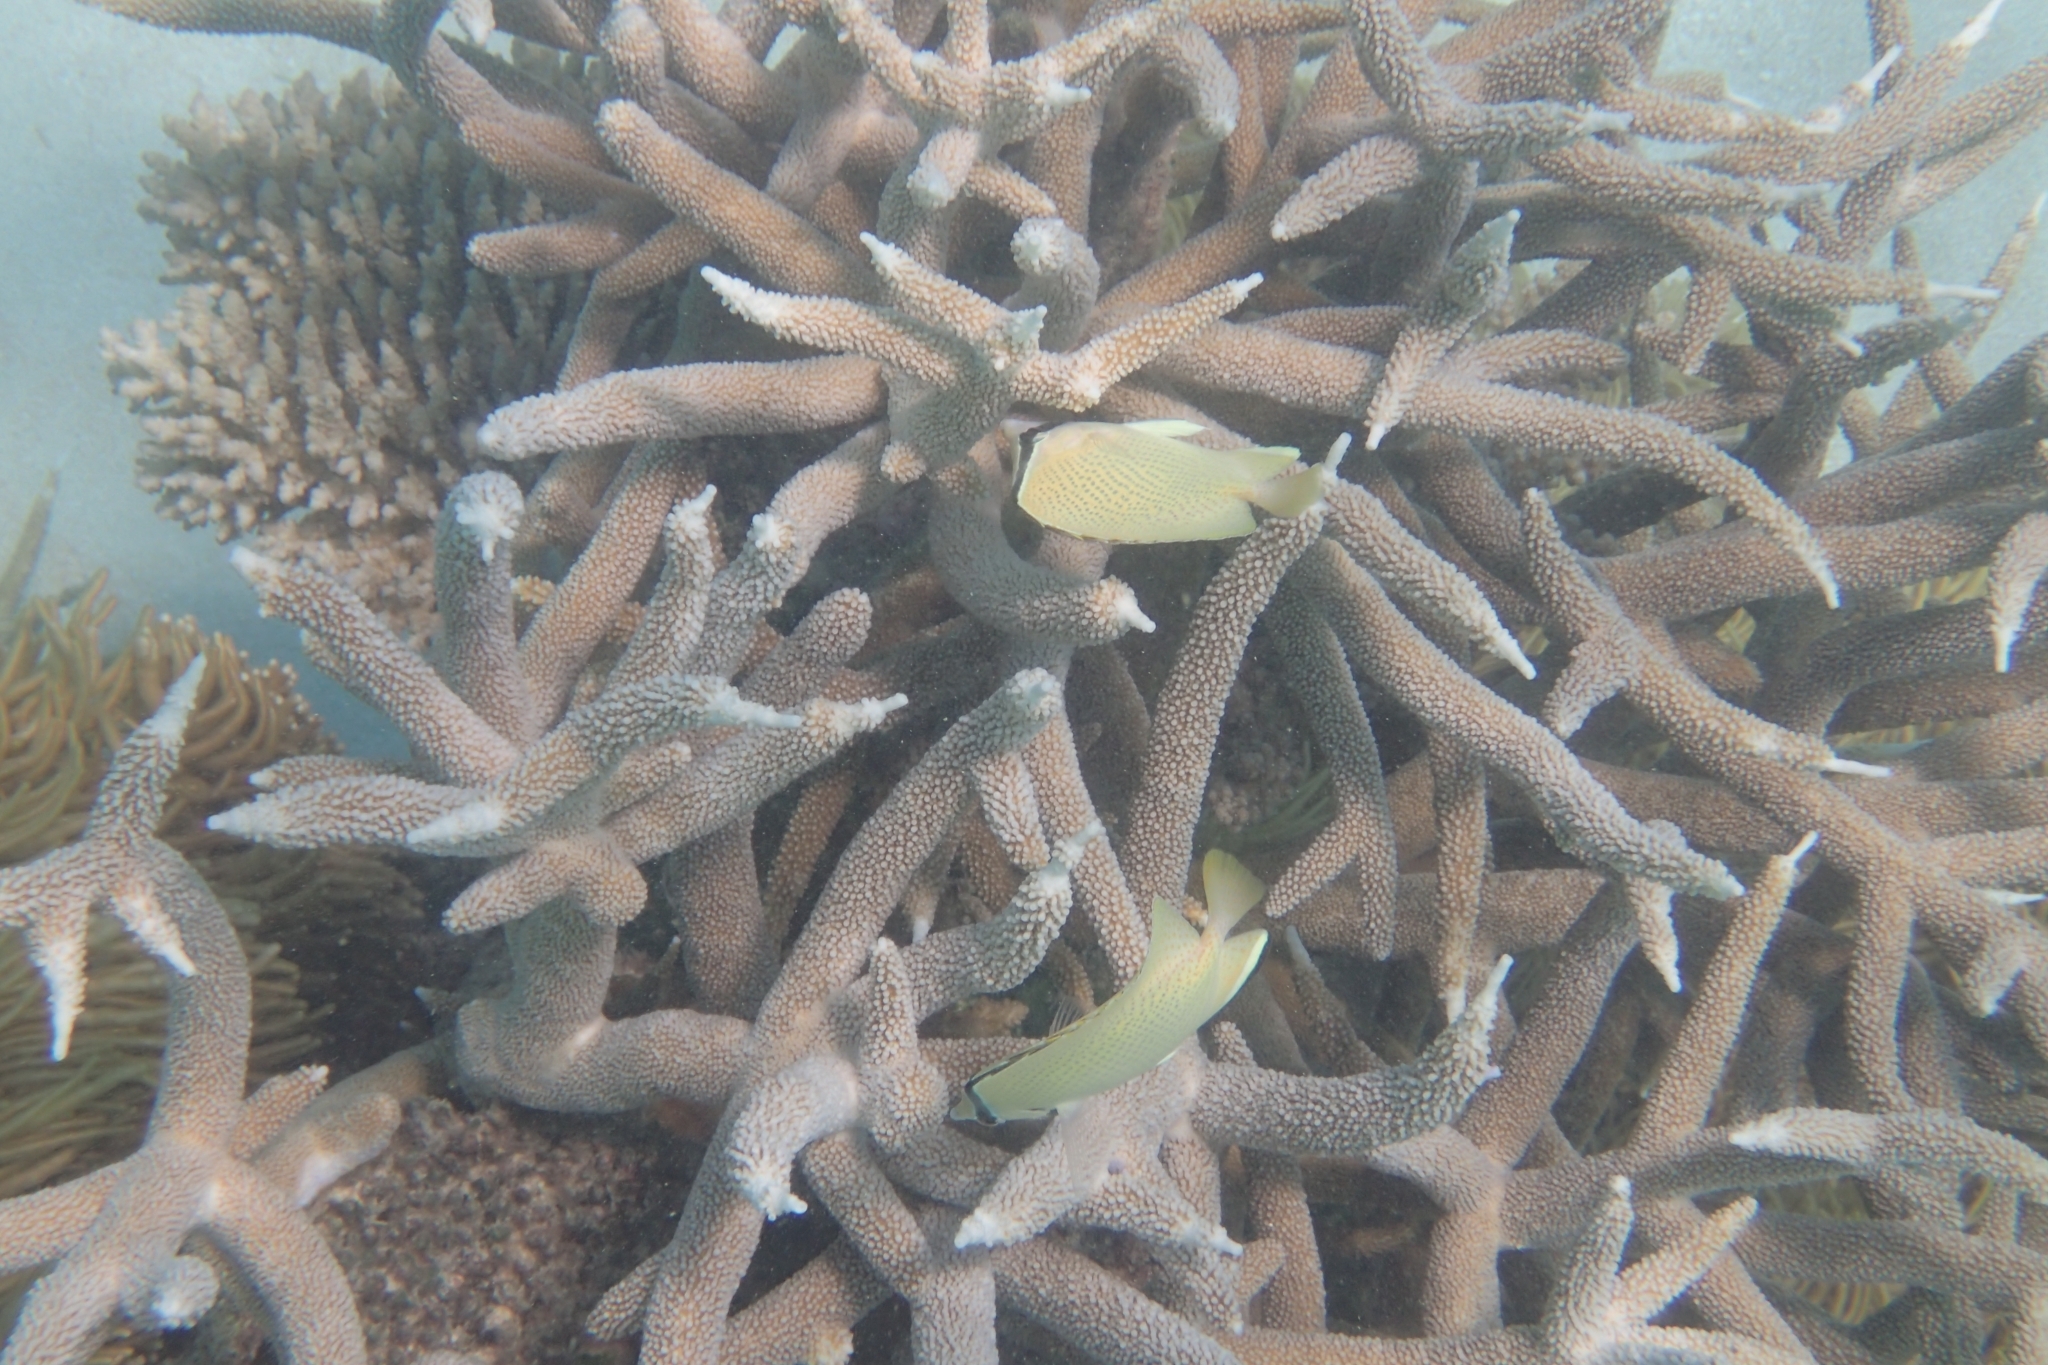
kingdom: Animalia
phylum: Chordata
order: Perciformes
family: Chaetodontidae
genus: Chaetodon
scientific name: Chaetodon citrinellus
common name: Speckled butterflyfish
